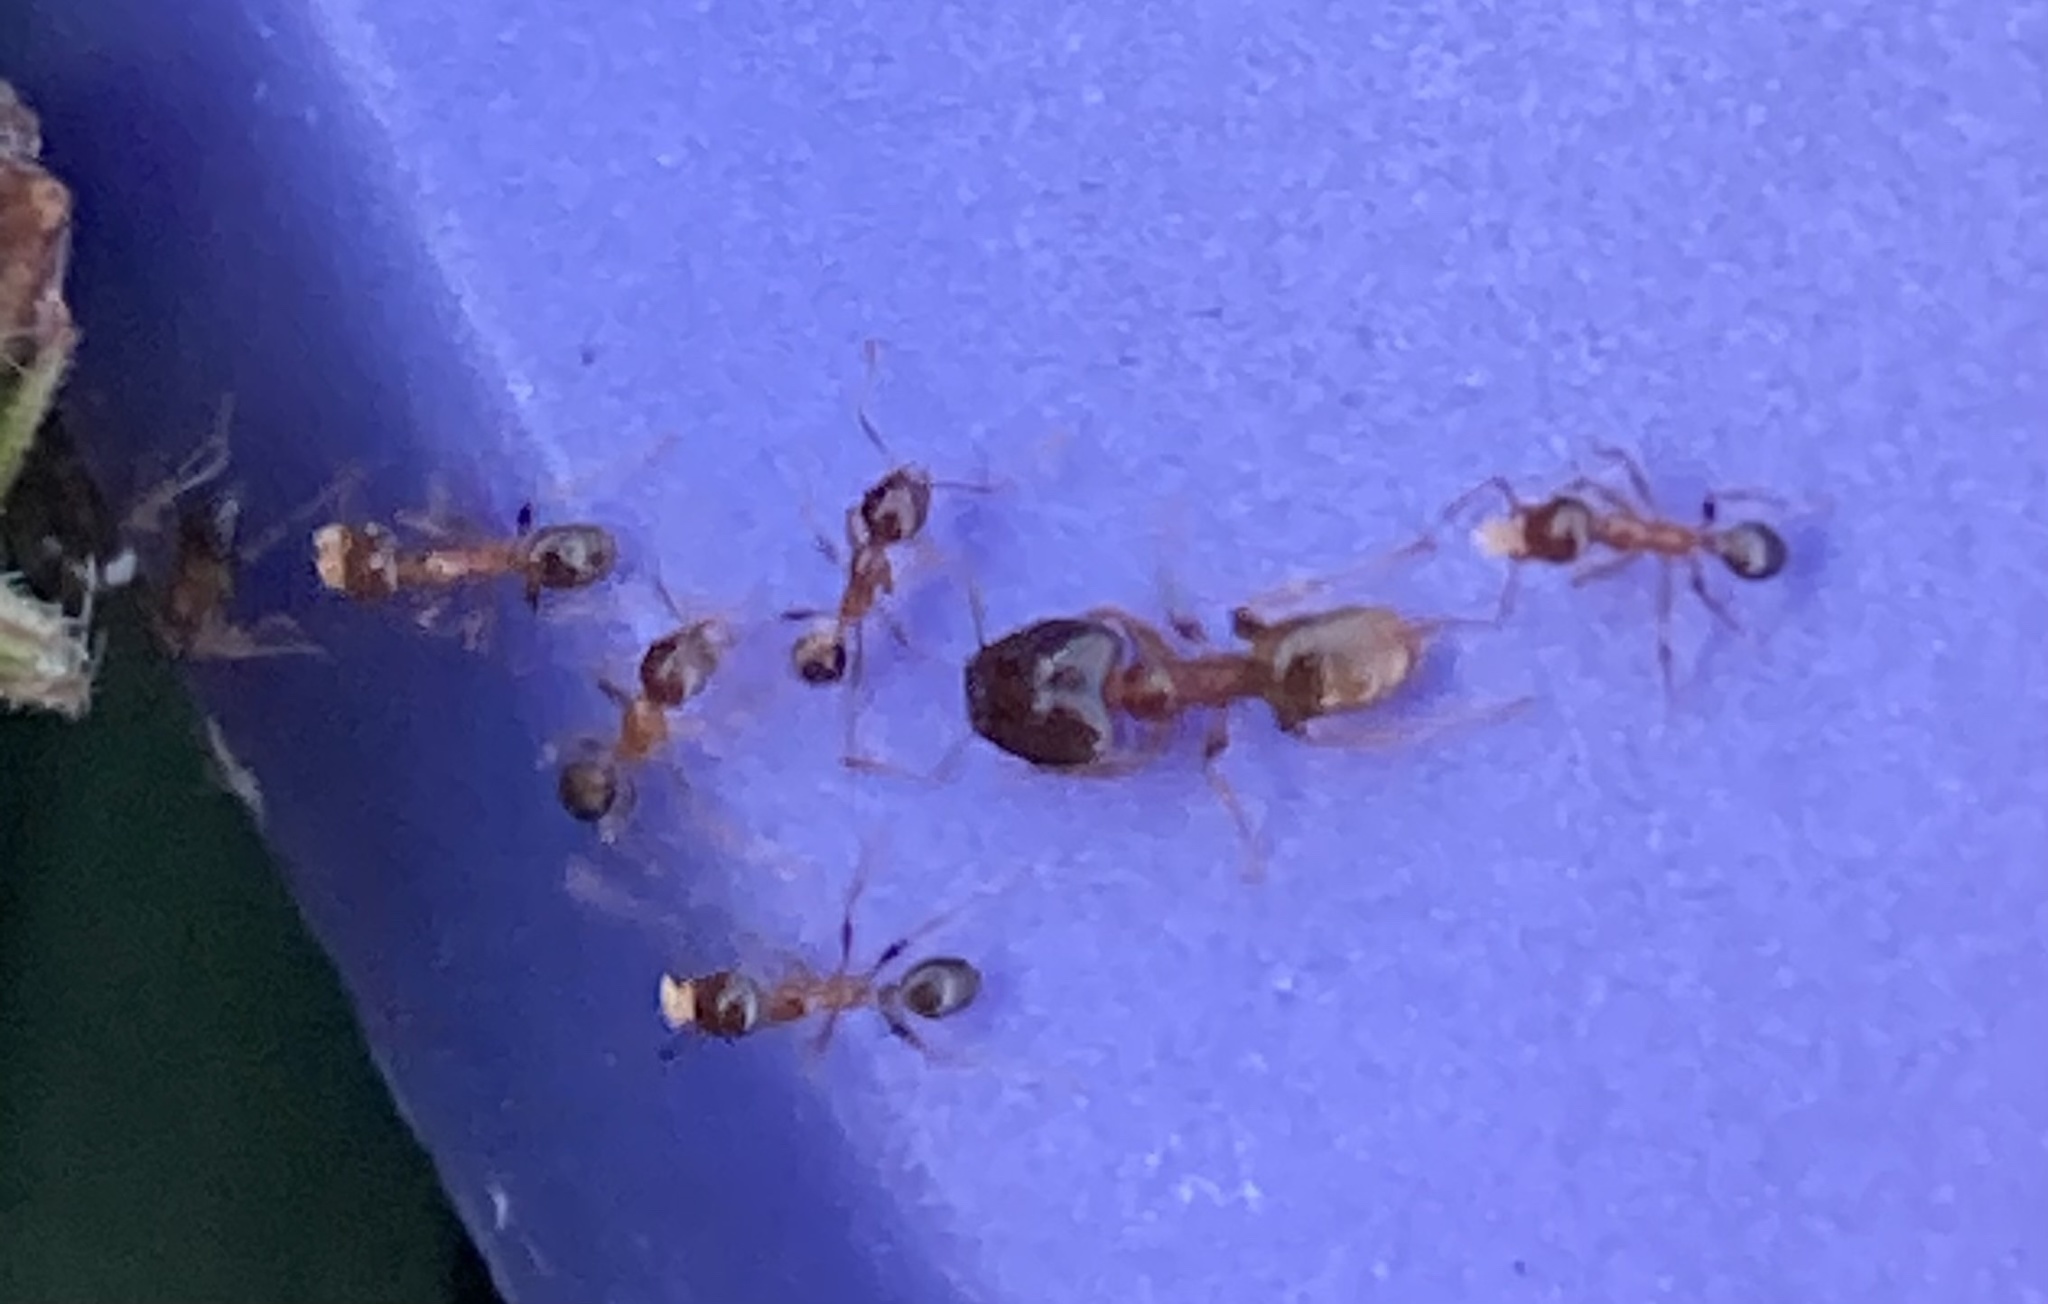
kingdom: Animalia
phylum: Arthropoda
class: Insecta
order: Hymenoptera
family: Formicidae
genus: Pheidole
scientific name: Pheidole megacephala
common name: Bigheaded ant
